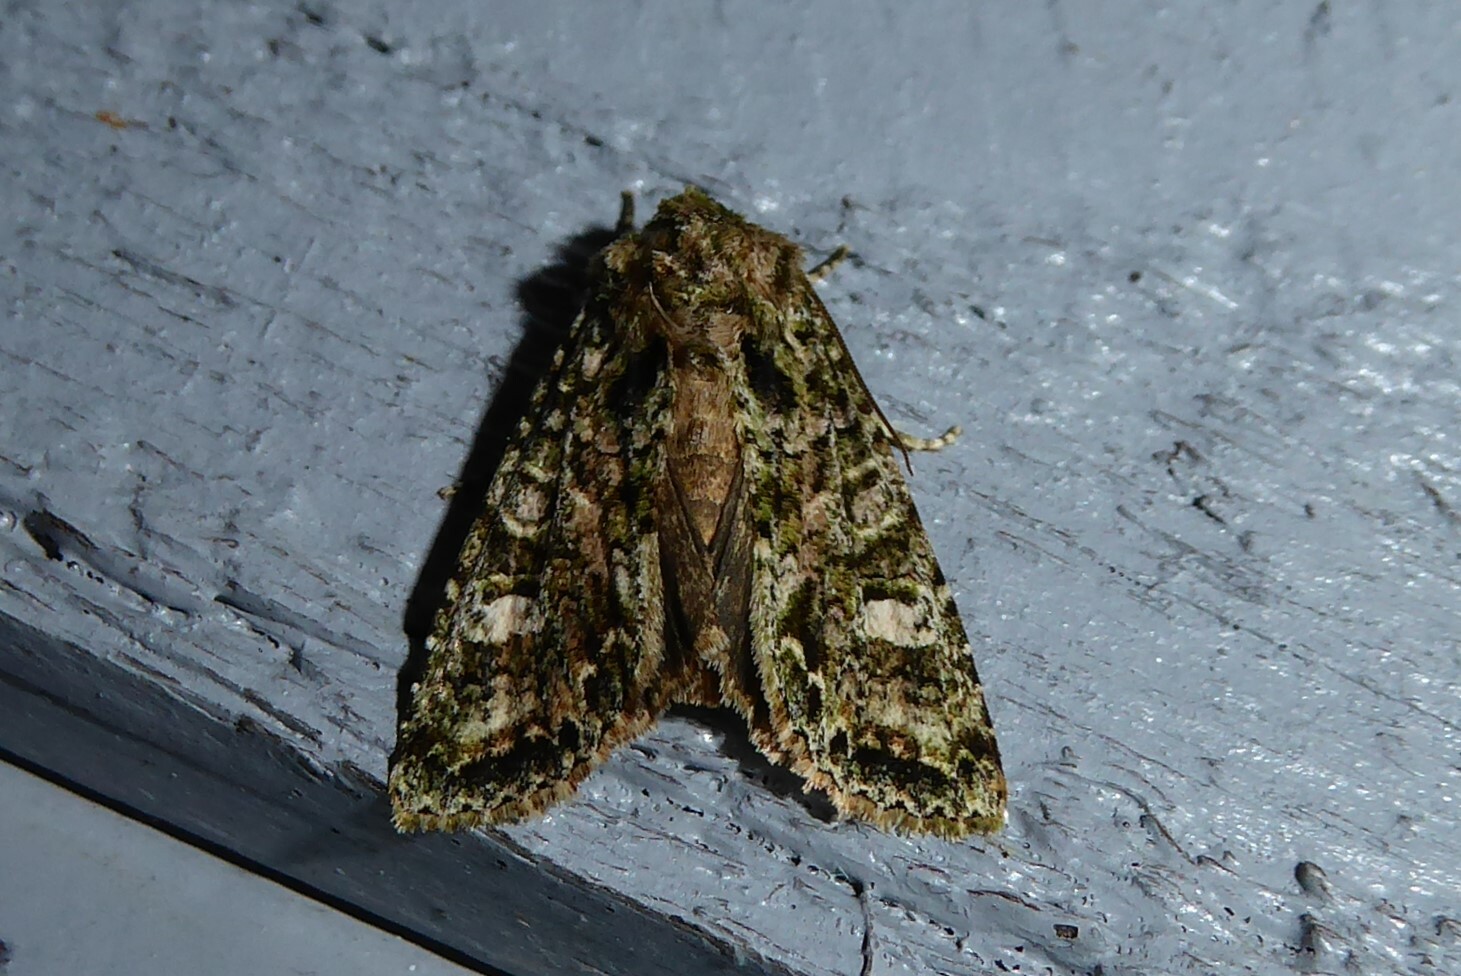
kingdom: Animalia
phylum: Arthropoda
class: Insecta
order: Lepidoptera
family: Noctuidae
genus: Ichneutica
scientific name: Ichneutica
